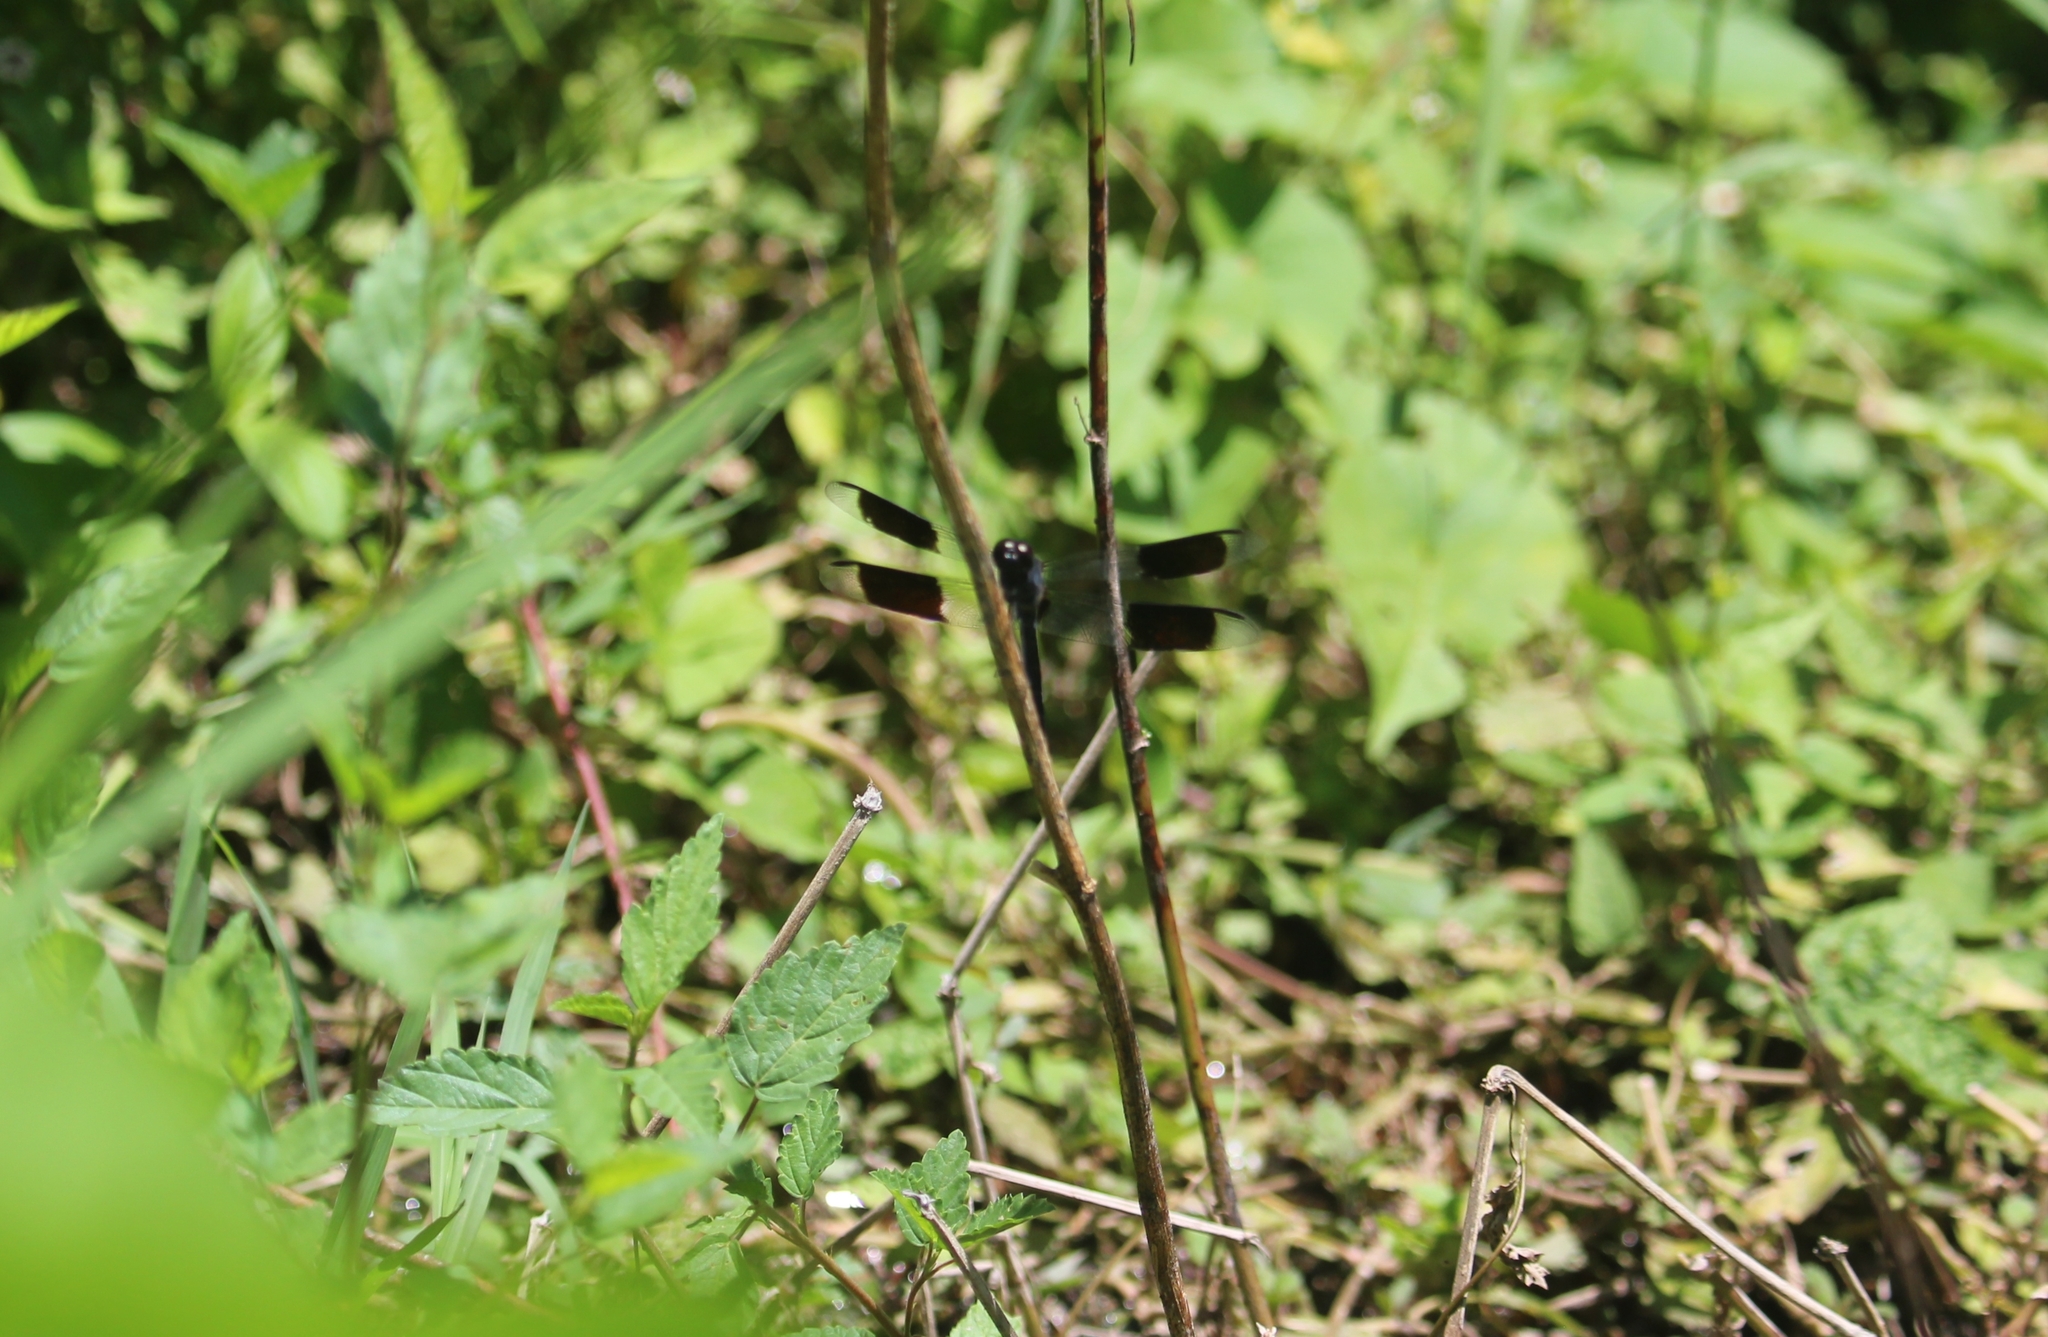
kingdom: Animalia
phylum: Arthropoda
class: Insecta
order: Odonata
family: Libellulidae
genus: Erythrodiplax
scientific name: Erythrodiplax umbrata
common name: Band-winged dragonlet
